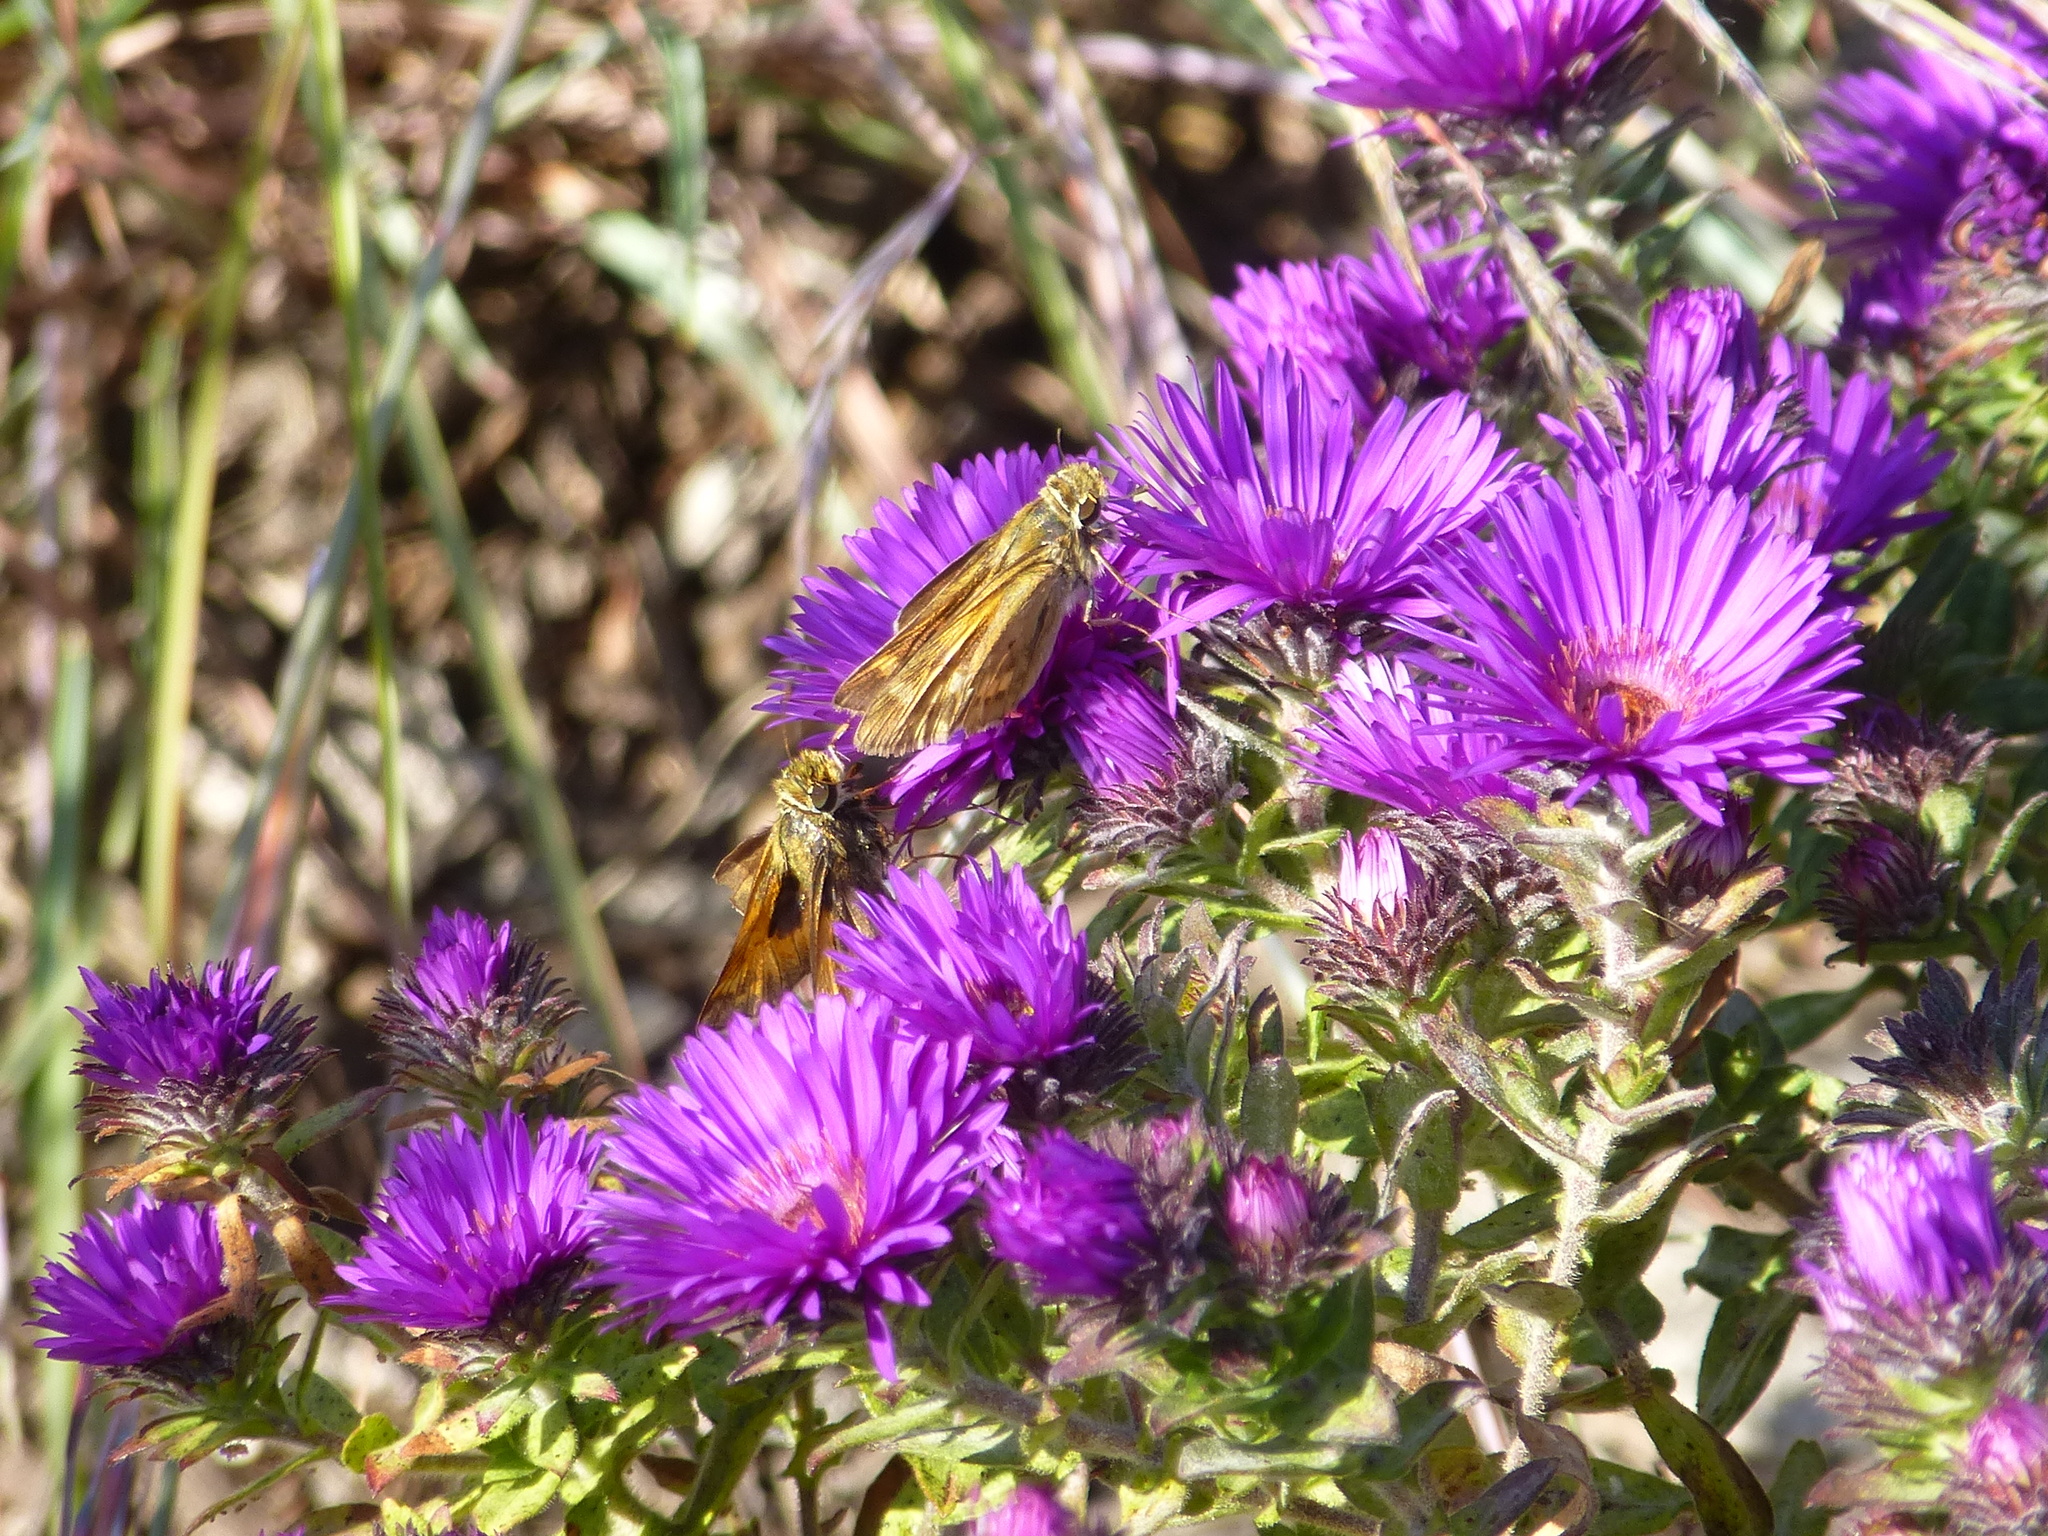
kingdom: Animalia
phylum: Arthropoda
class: Insecta
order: Lepidoptera
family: Hesperiidae
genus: Atalopedes
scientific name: Atalopedes
